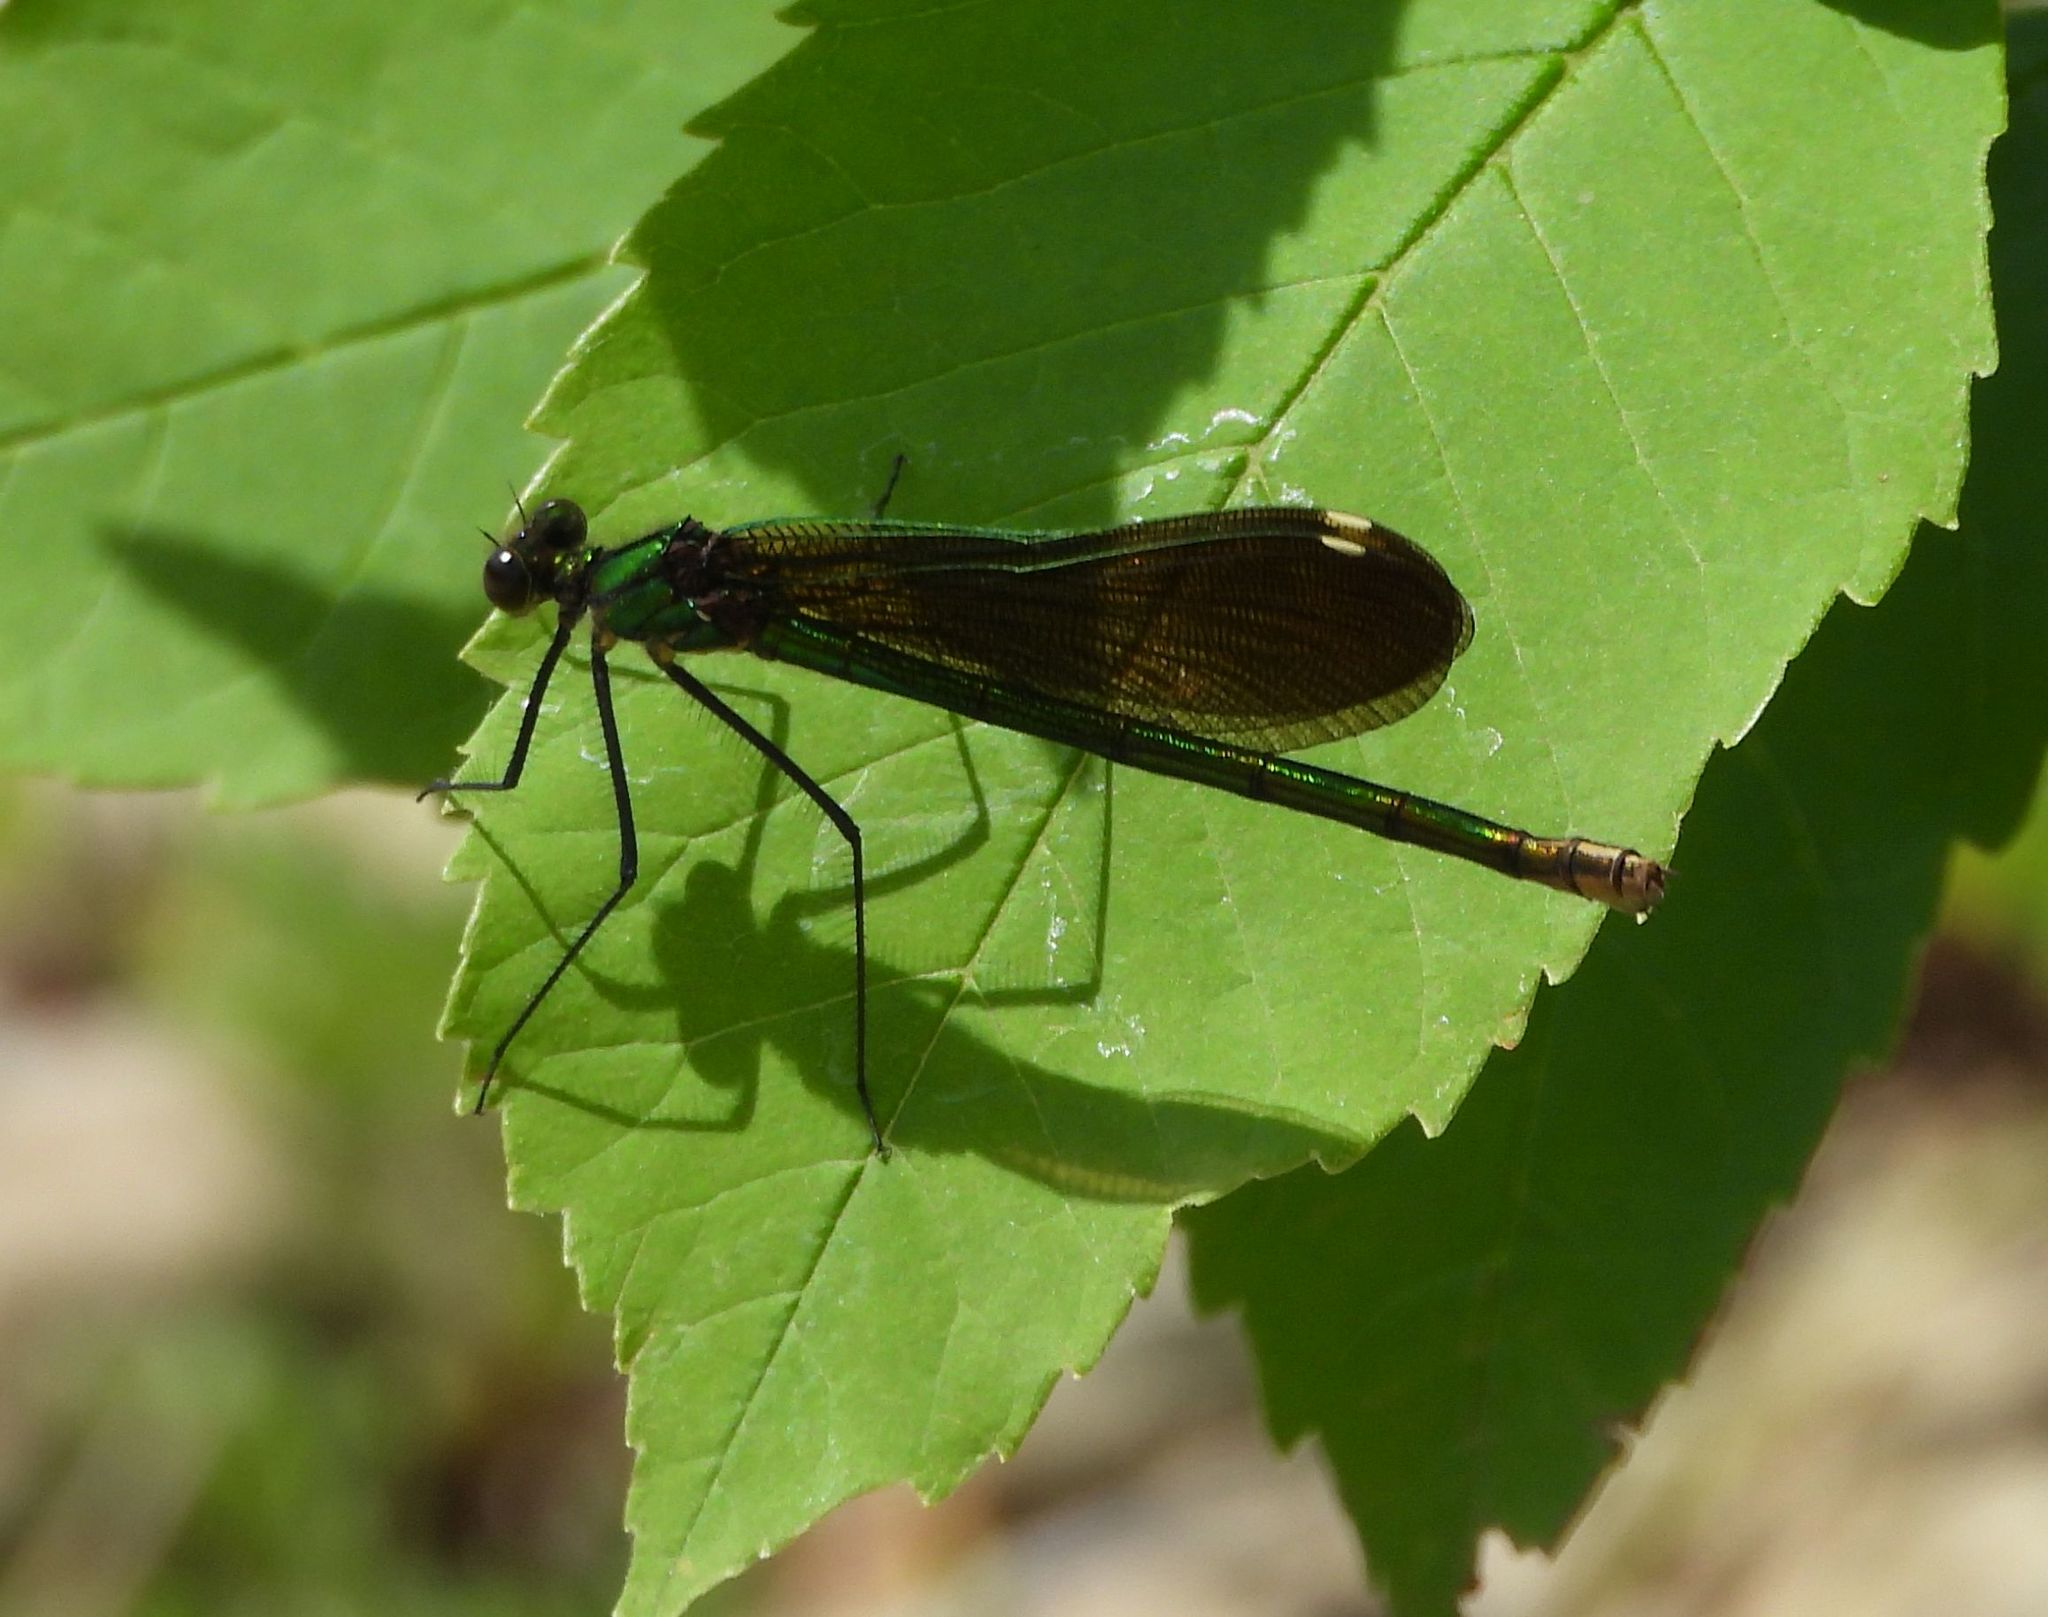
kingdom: Animalia
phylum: Arthropoda
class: Insecta
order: Odonata
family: Calopterygidae
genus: Calopteryx
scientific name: Calopteryx aequabilis
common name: River jewelwing
